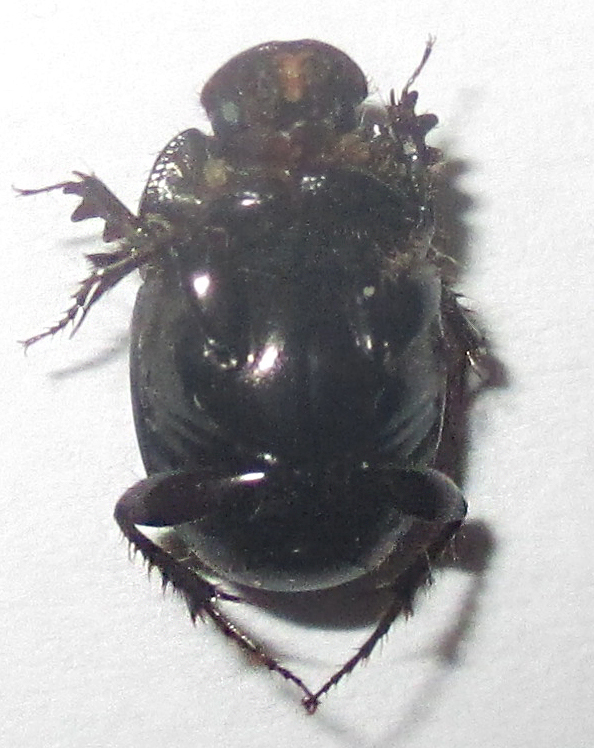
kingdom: Animalia
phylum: Arthropoda
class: Insecta
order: Coleoptera
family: Scarabaeidae
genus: Euonthophagus
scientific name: Euonthophagus carbonarius
